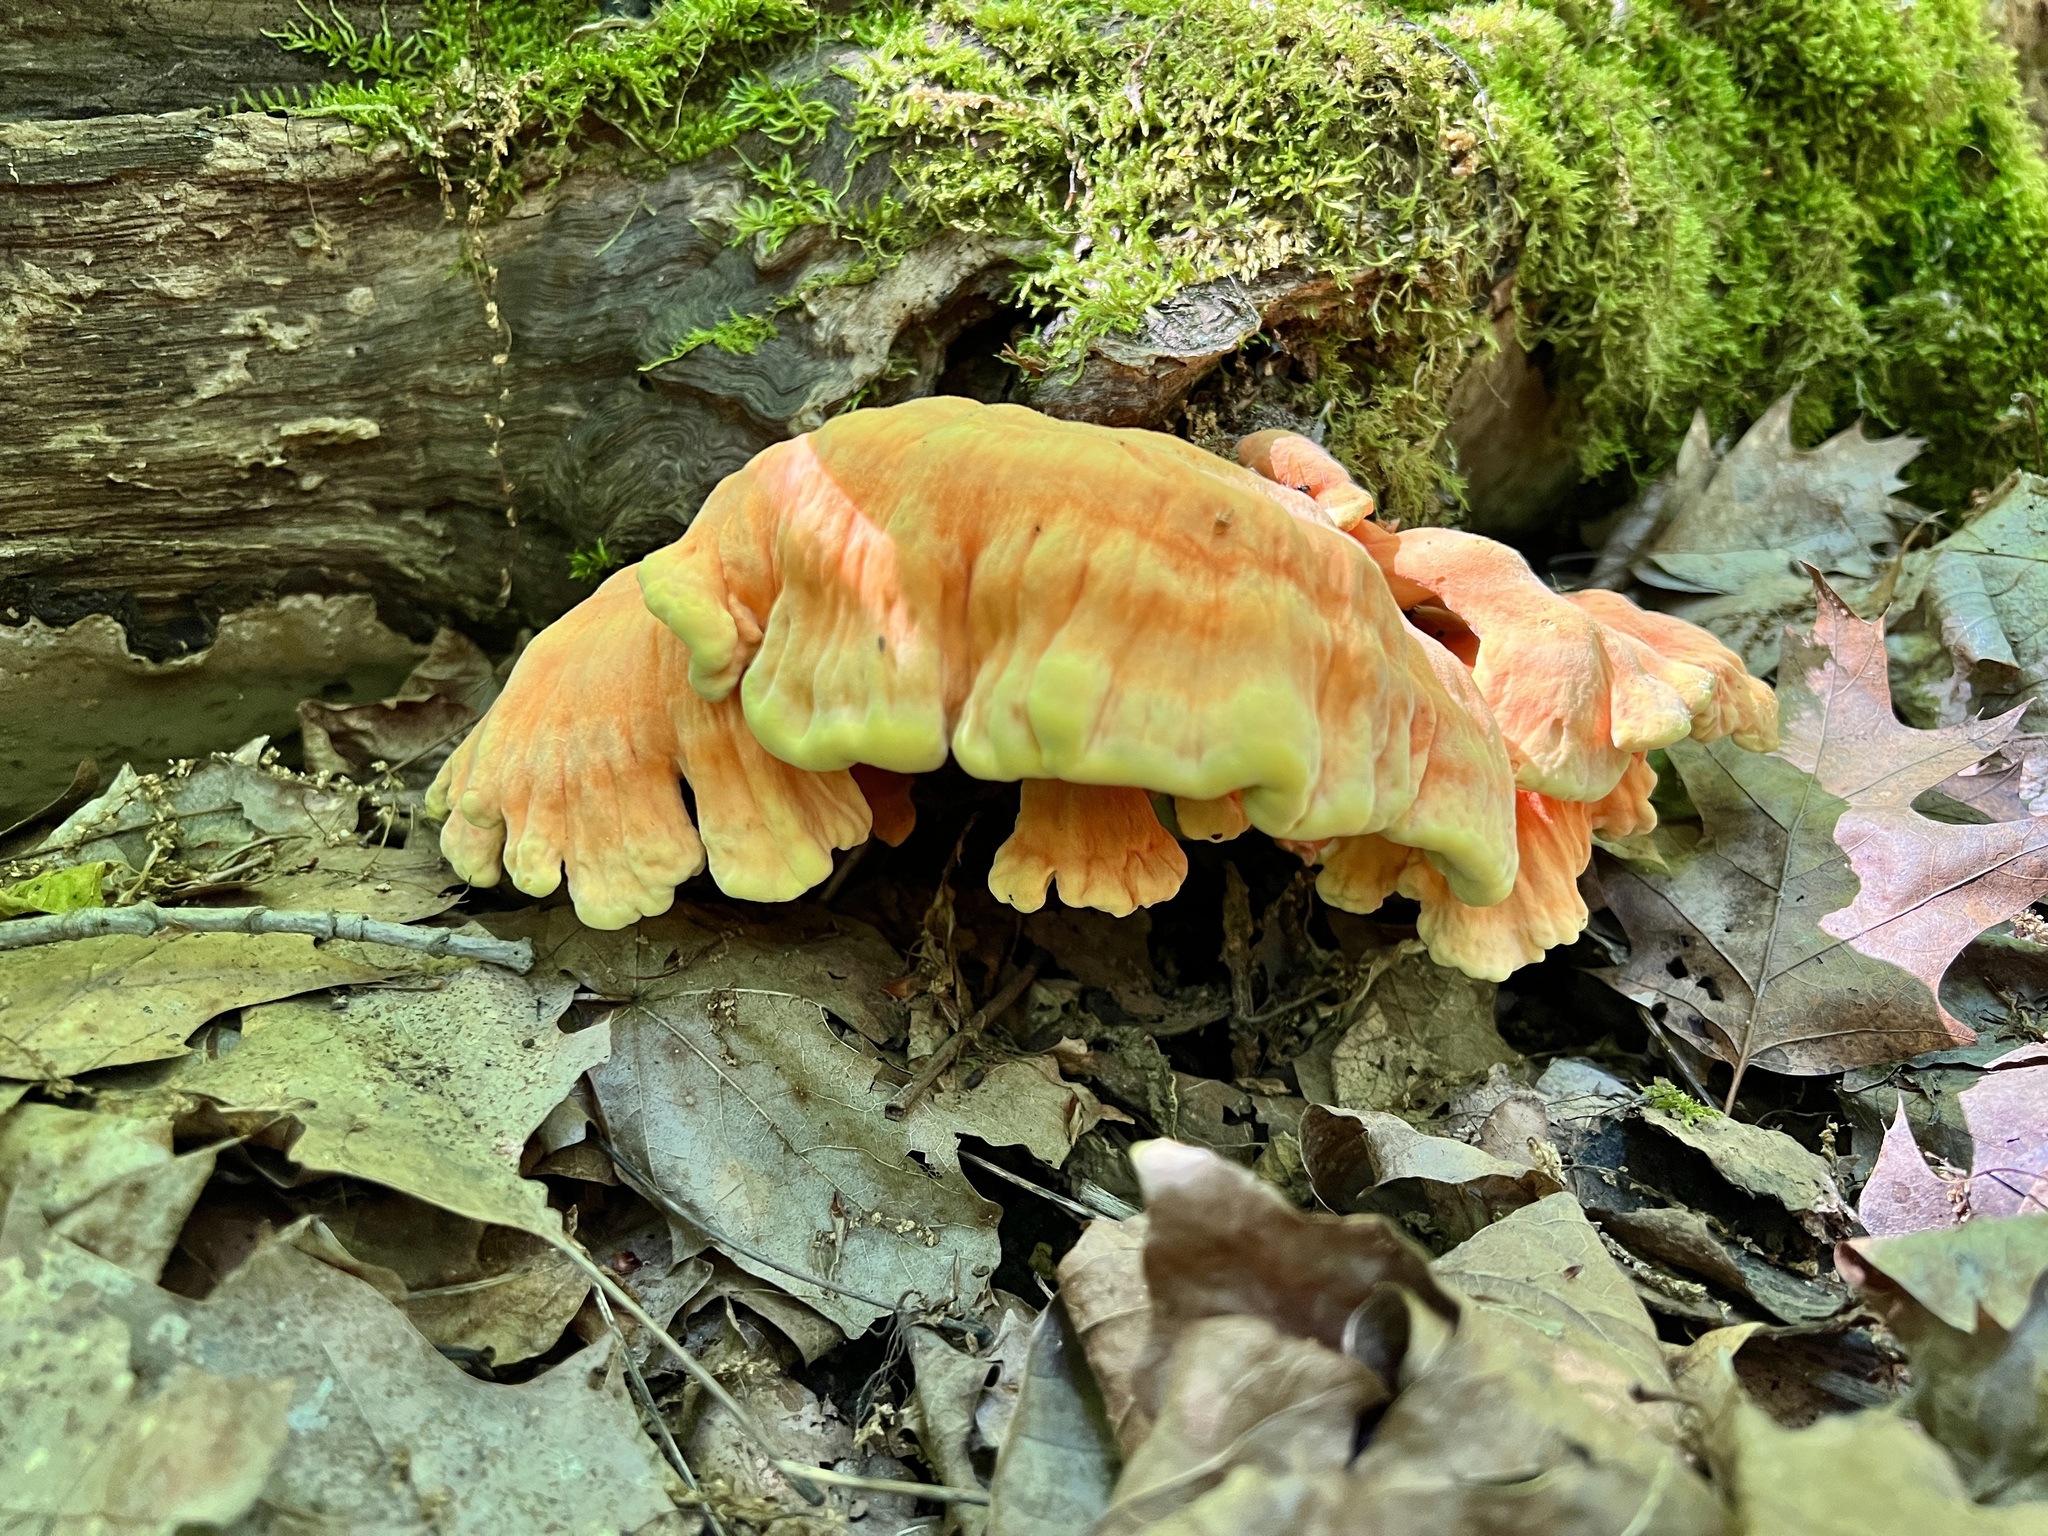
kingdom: Fungi
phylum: Basidiomycota
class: Agaricomycetes
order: Polyporales
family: Laetiporaceae
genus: Laetiporus
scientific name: Laetiporus sulphureus
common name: Chicken of the woods
